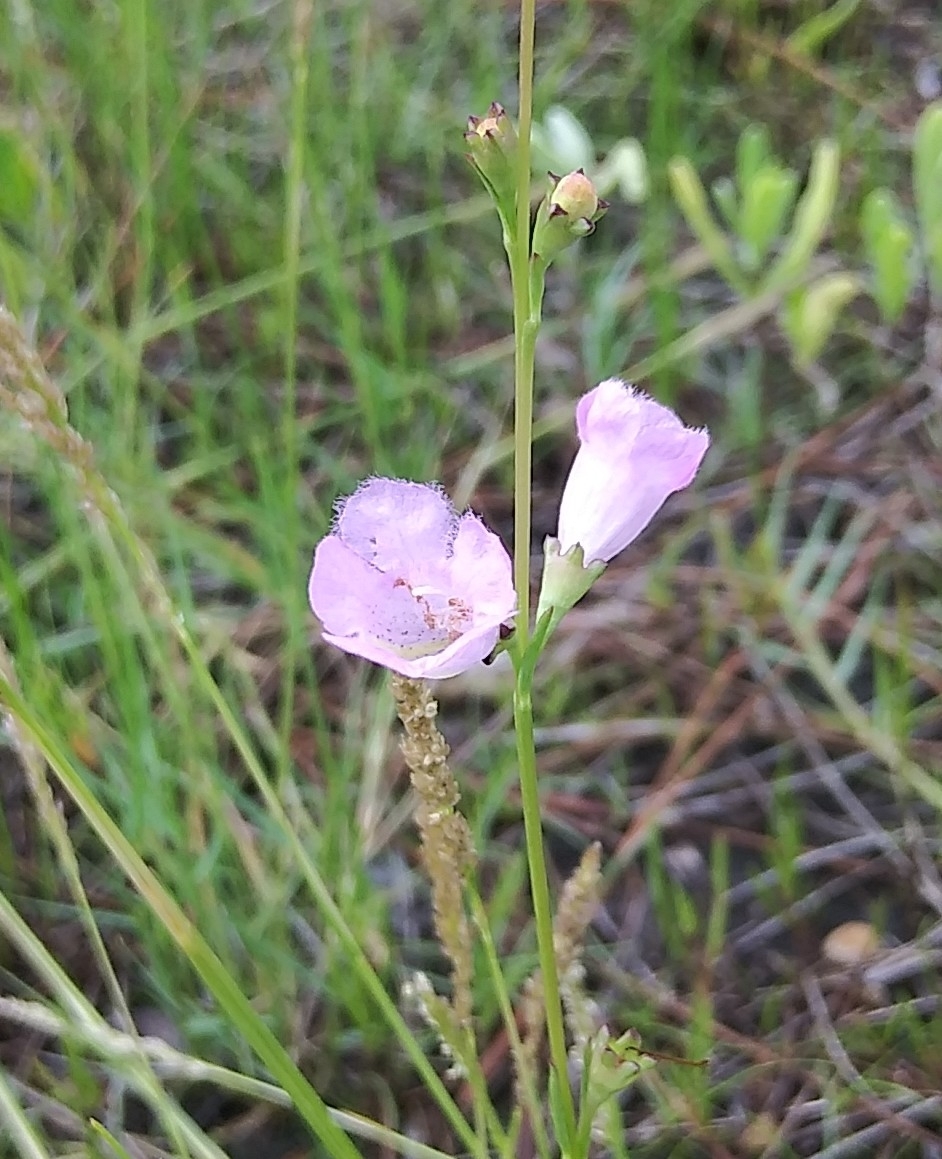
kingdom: Plantae
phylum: Tracheophyta
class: Magnoliopsida
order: Lamiales
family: Orobanchaceae
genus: Agalinis
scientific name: Agalinis maritima
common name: Saltmarsh agalinis
